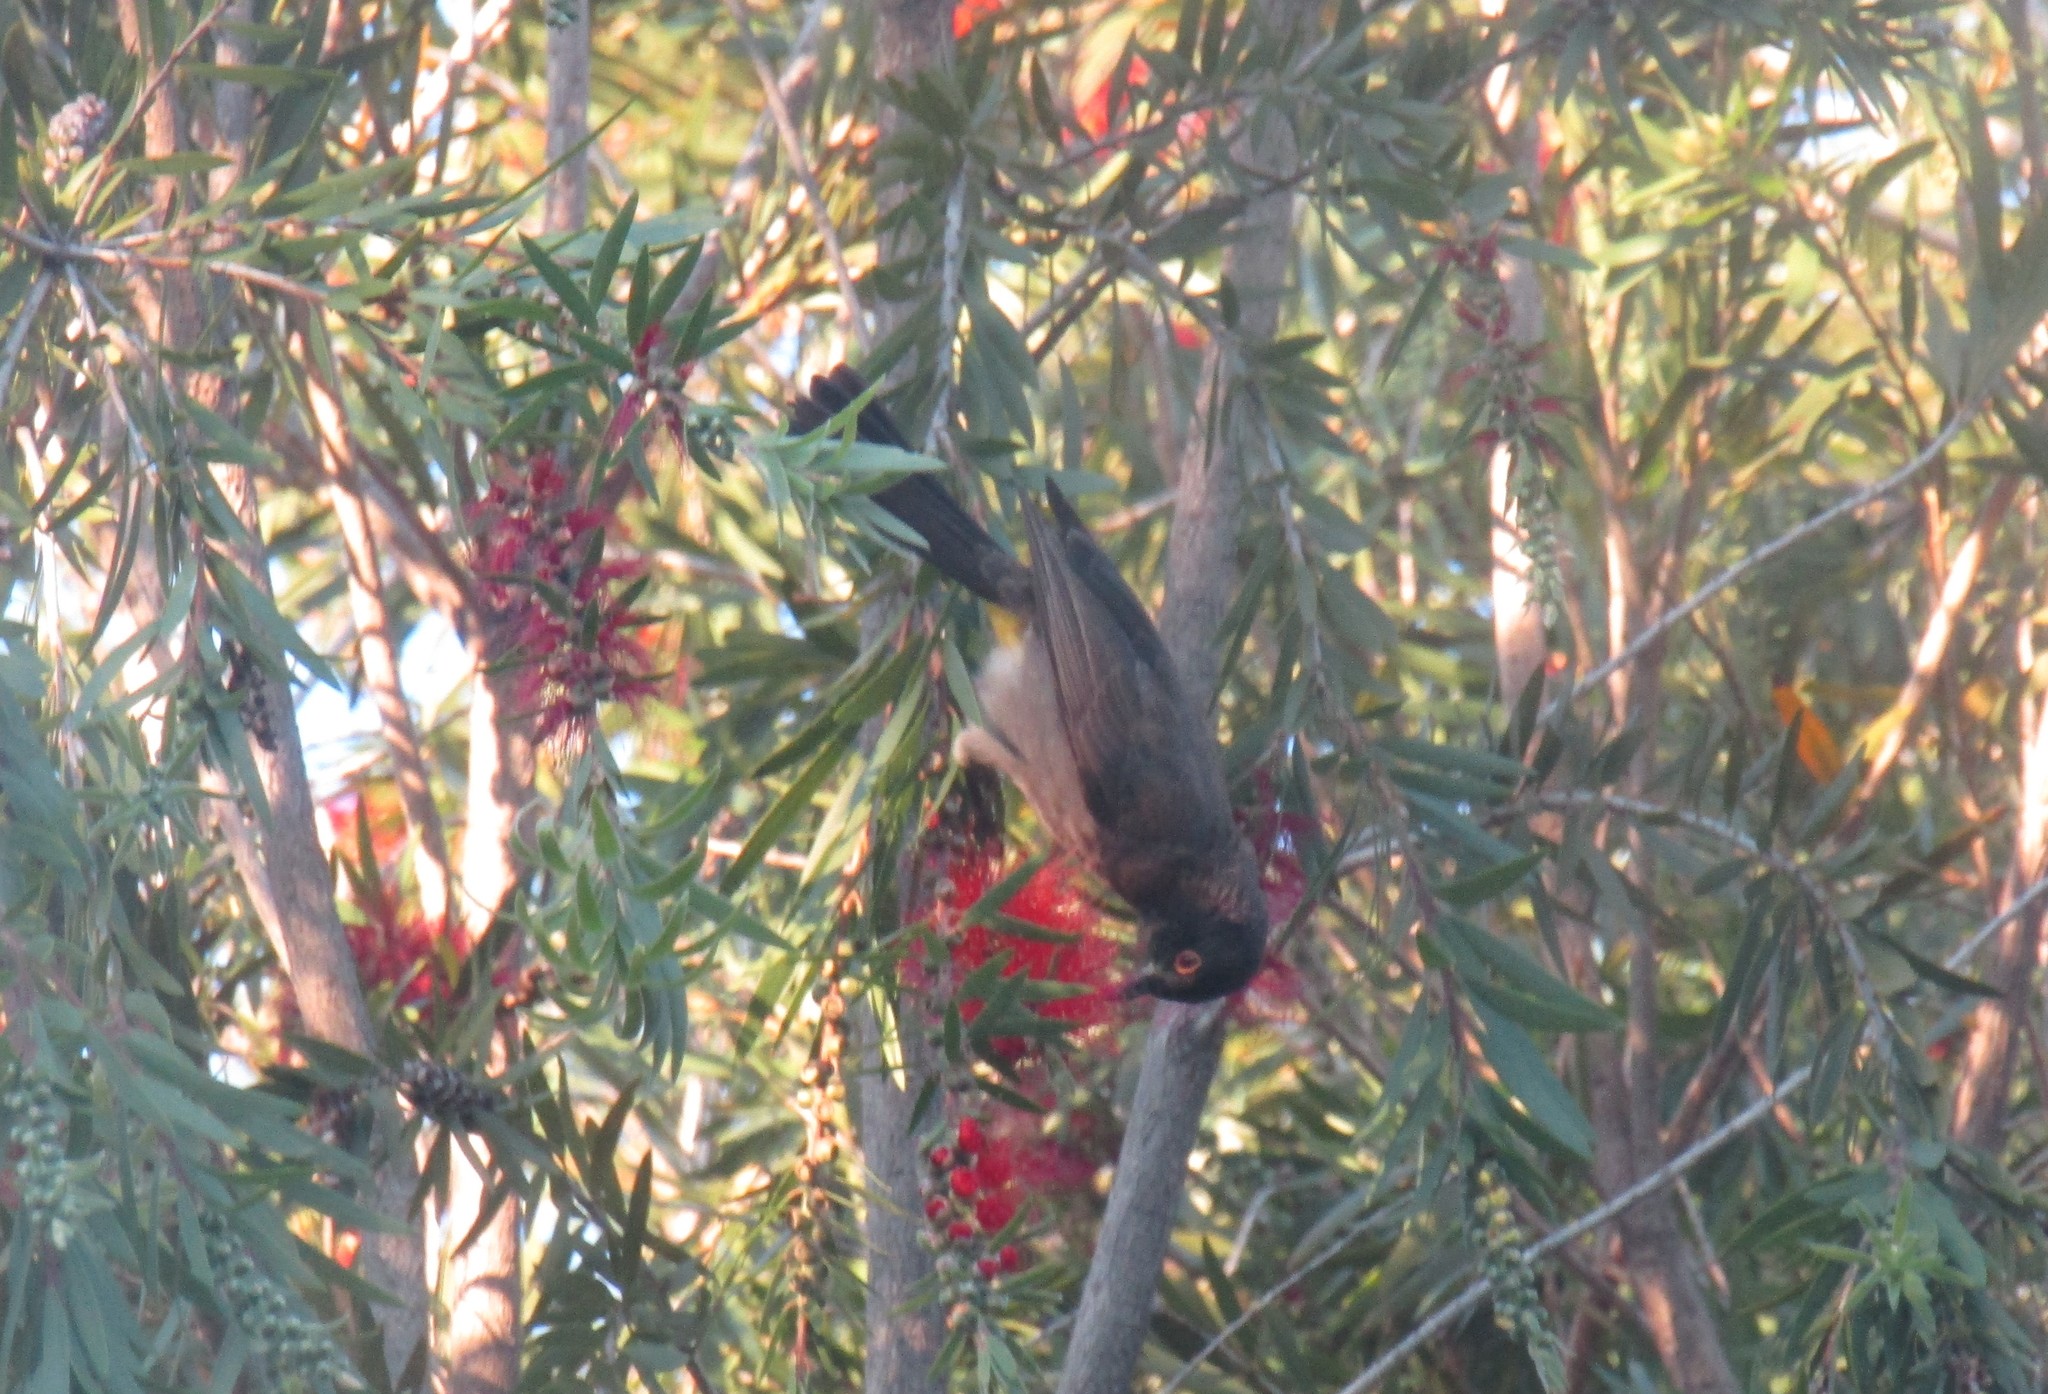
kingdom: Animalia
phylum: Chordata
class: Aves
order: Passeriformes
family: Pycnonotidae
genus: Pycnonotus
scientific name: Pycnonotus nigricans
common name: African red-eyed bulbul
